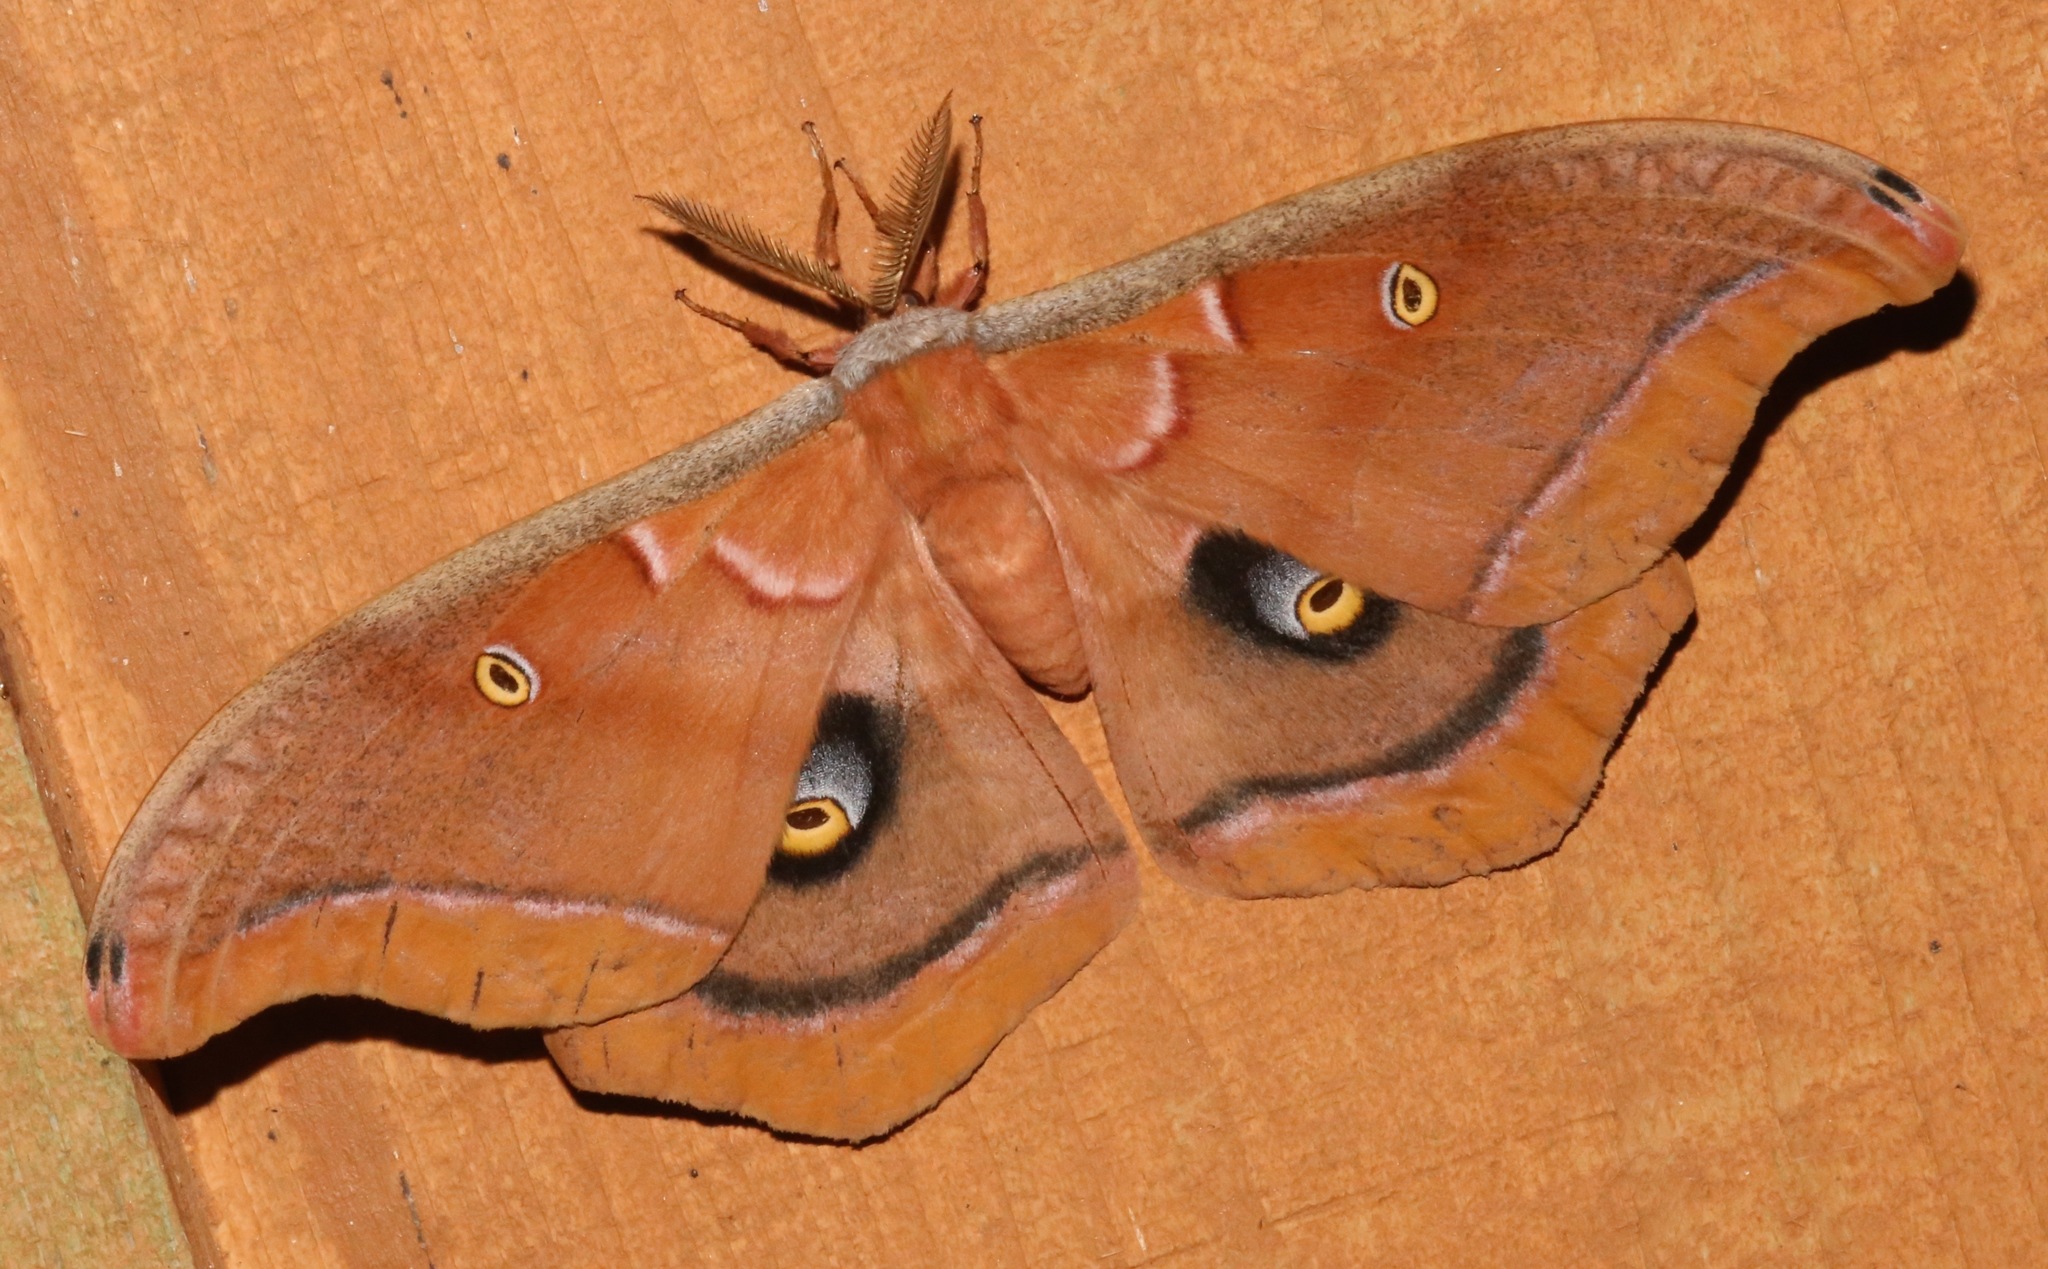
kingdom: Animalia
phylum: Arthropoda
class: Insecta
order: Lepidoptera
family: Saturniidae
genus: Antheraea
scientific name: Antheraea polyphemus
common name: Polyphemus moth
